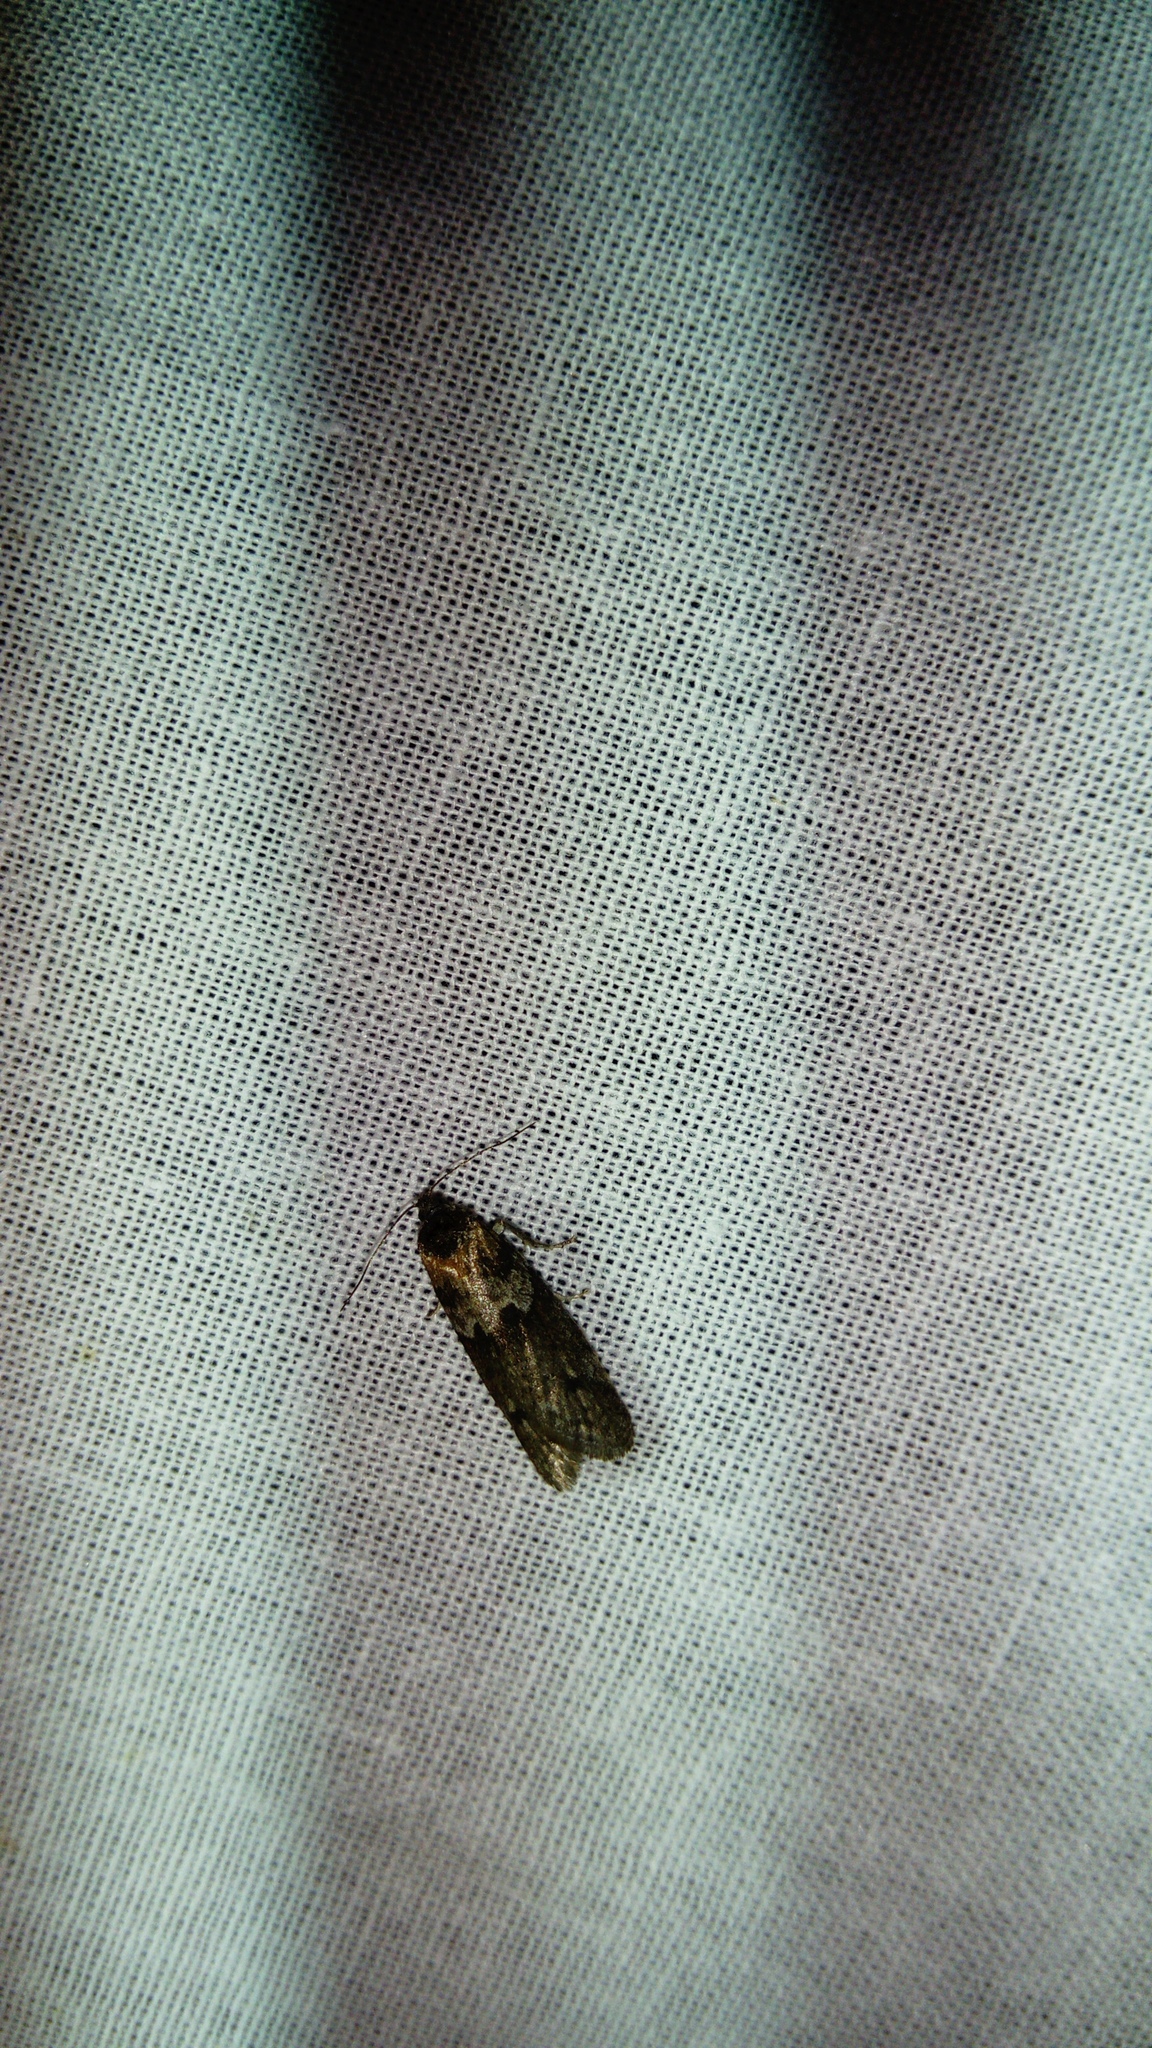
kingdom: Animalia
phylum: Arthropoda
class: Insecta
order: Lepidoptera
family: Tortricidae
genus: Tortricodes
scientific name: Tortricodes alternella
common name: Winter shade
